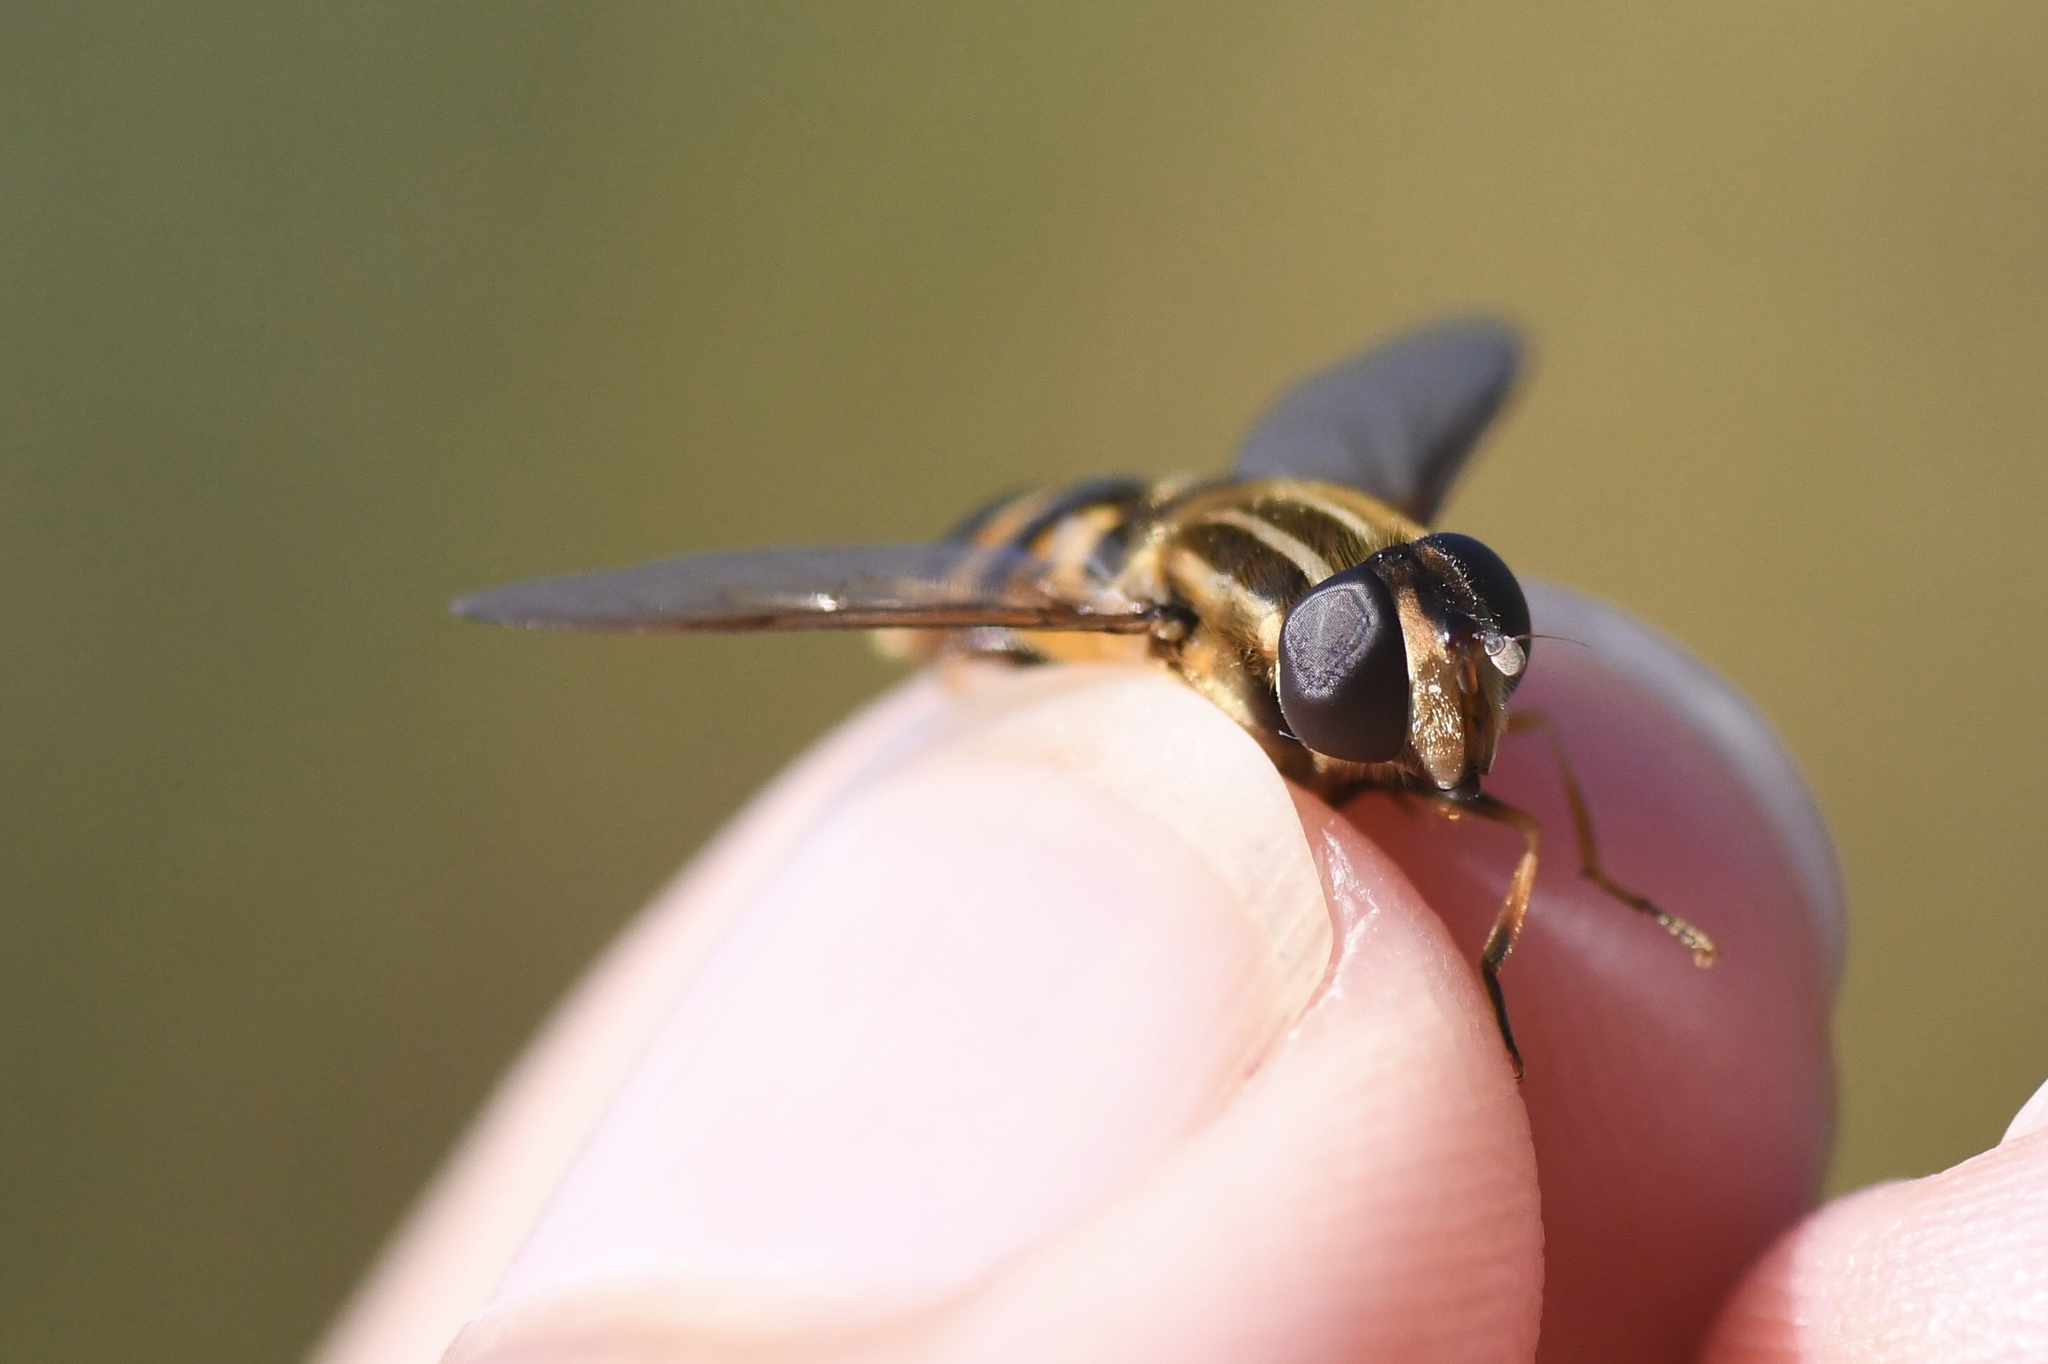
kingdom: Animalia
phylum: Arthropoda
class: Insecta
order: Diptera
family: Syrphidae
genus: Helophilus
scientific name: Helophilus fasciatus
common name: Narrow-headed marsh fly
